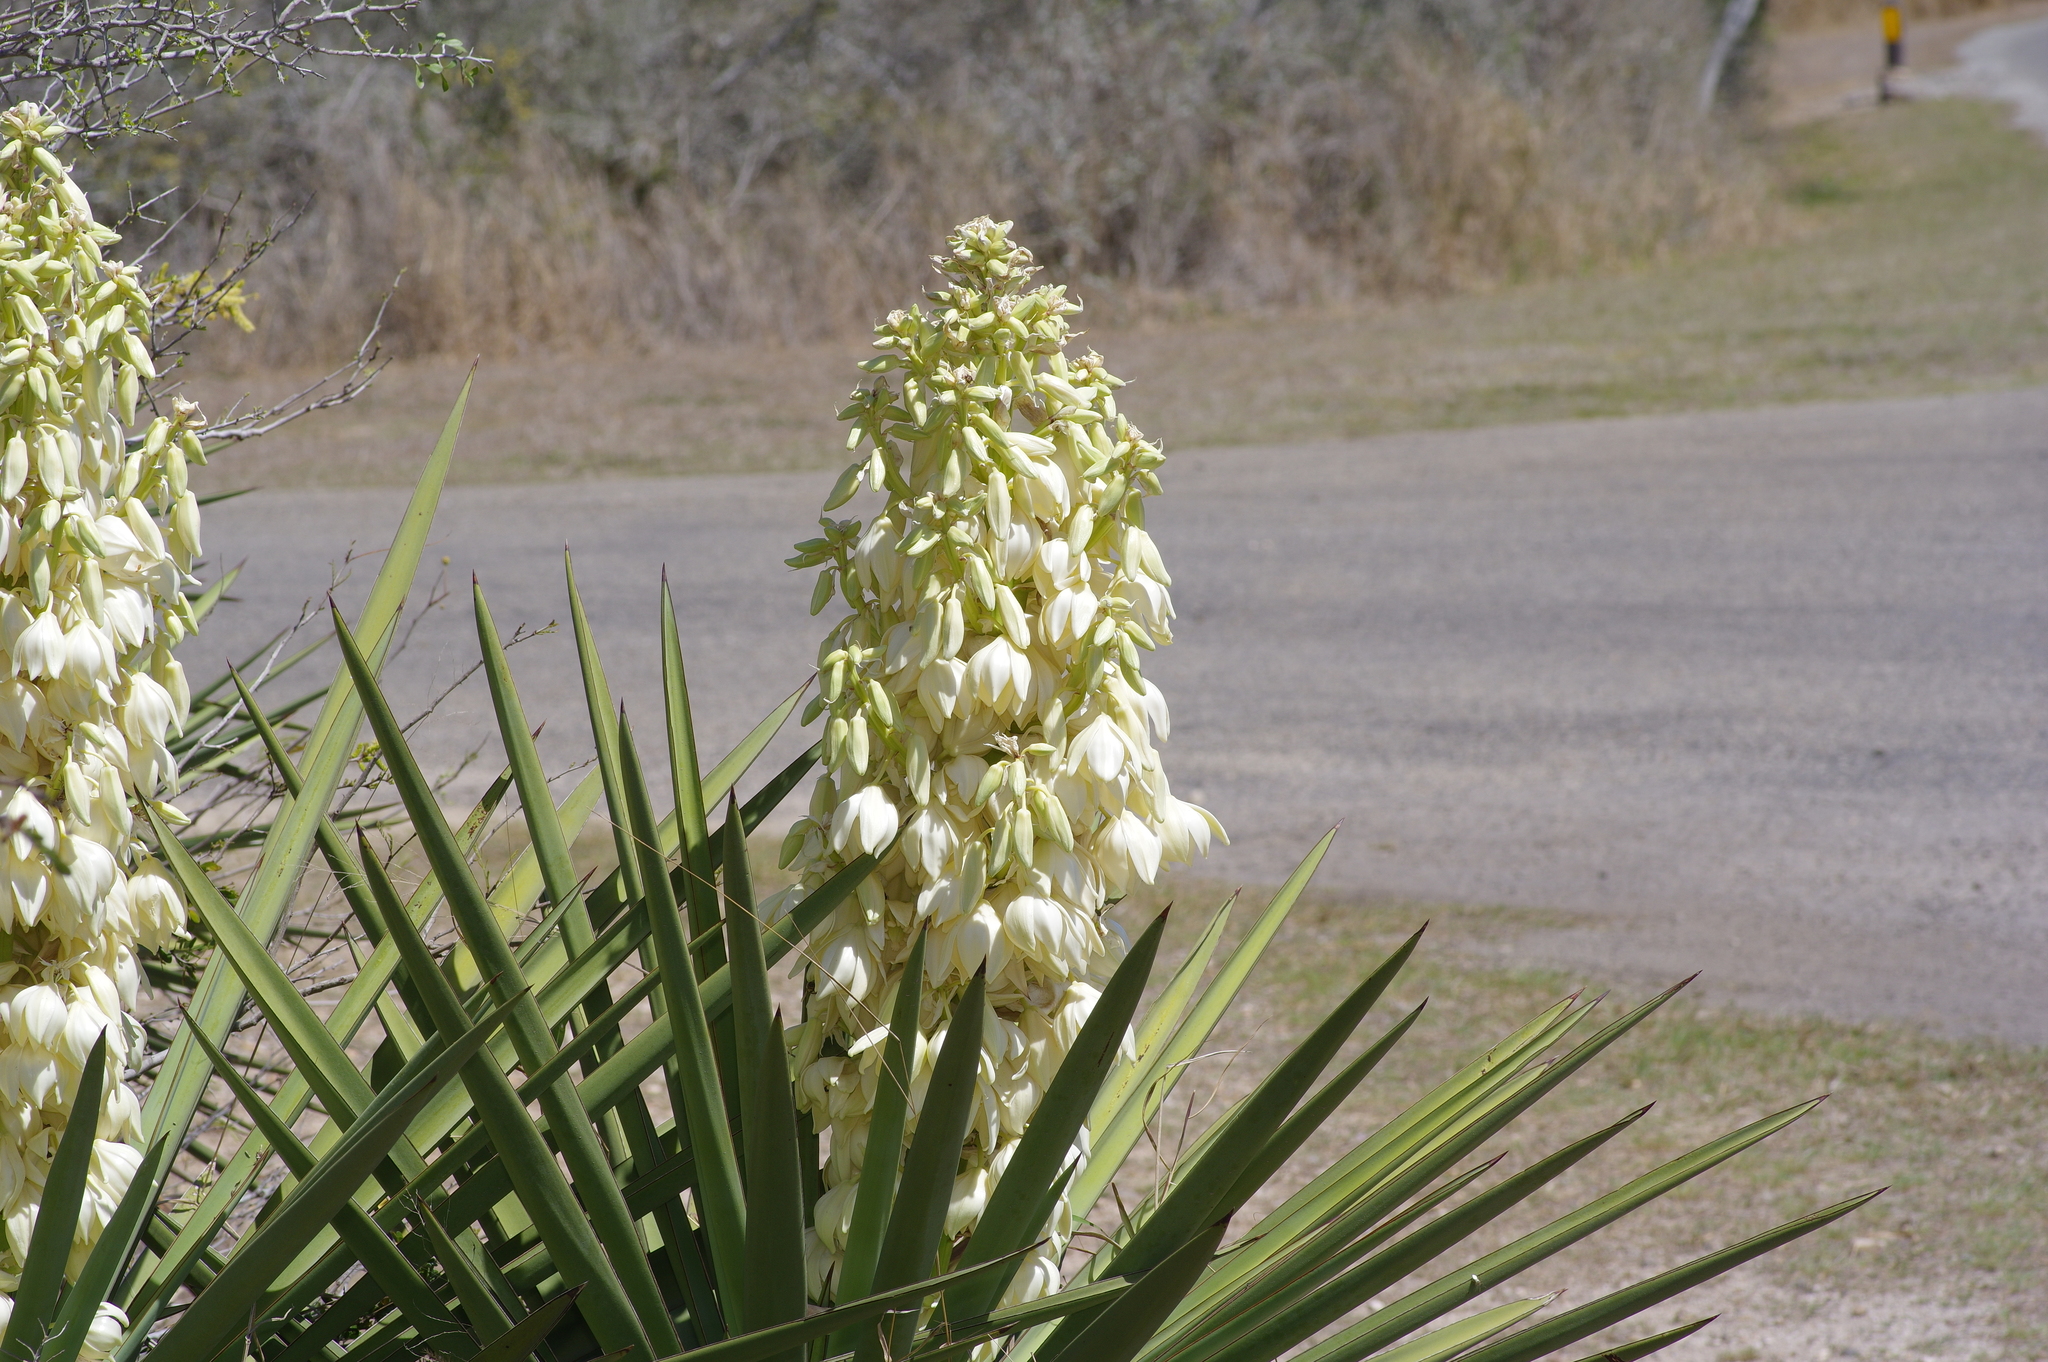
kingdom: Plantae
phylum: Tracheophyta
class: Liliopsida
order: Asparagales
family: Asparagaceae
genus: Yucca
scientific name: Yucca treculiana
